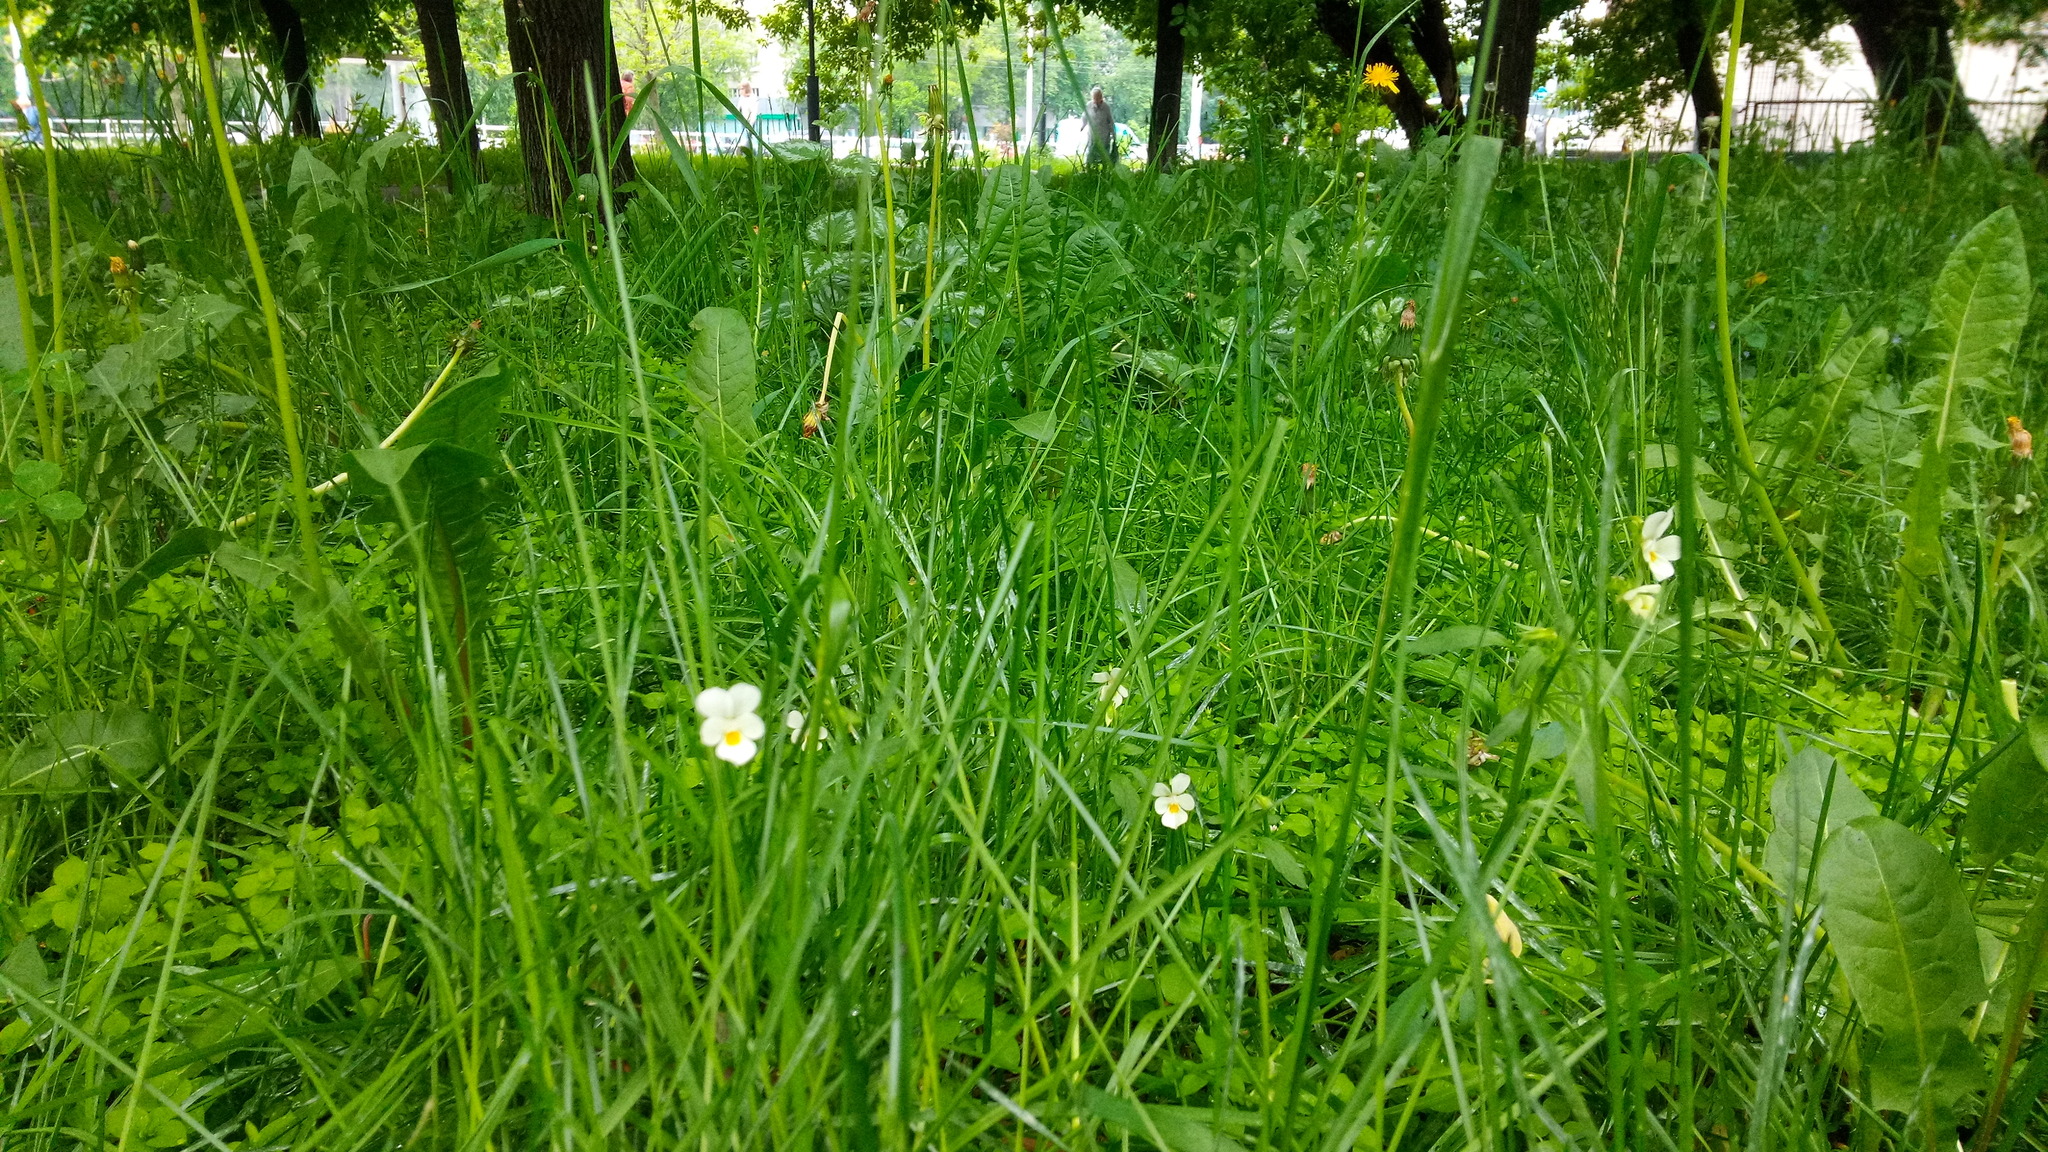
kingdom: Plantae
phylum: Tracheophyta
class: Magnoliopsida
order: Malpighiales
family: Violaceae
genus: Viola
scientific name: Viola arvensis
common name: Field pansy
